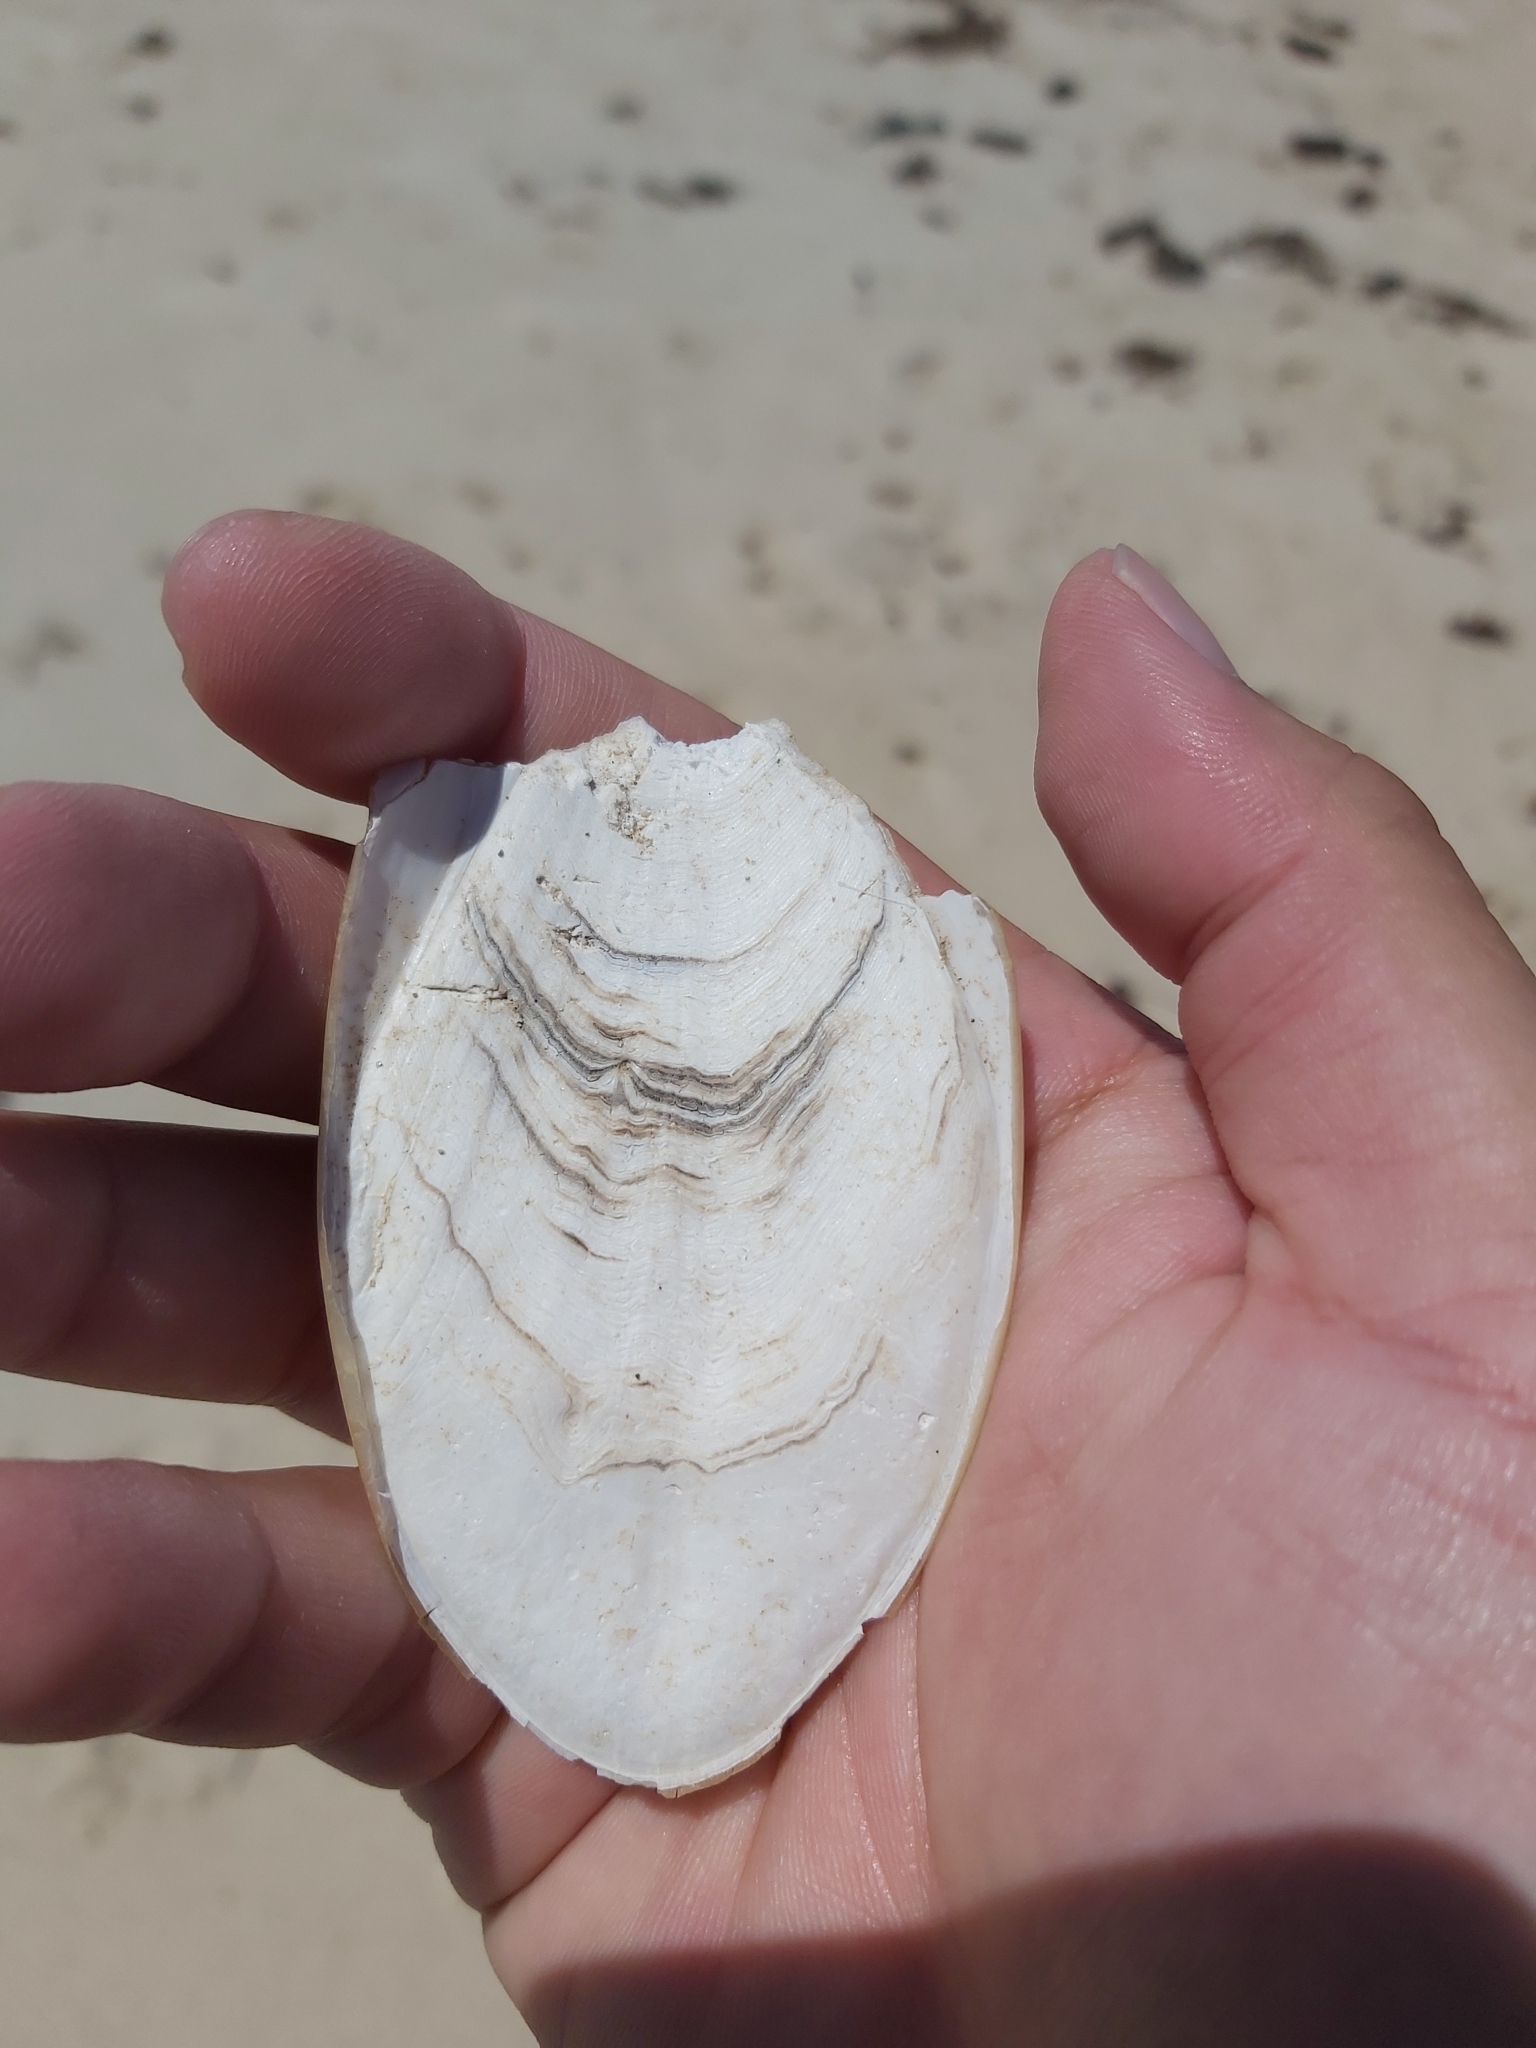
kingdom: Animalia
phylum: Mollusca
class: Cephalopoda
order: Sepiida
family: Sepiidae
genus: Ascarosepion
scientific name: Ascarosepion mestus
